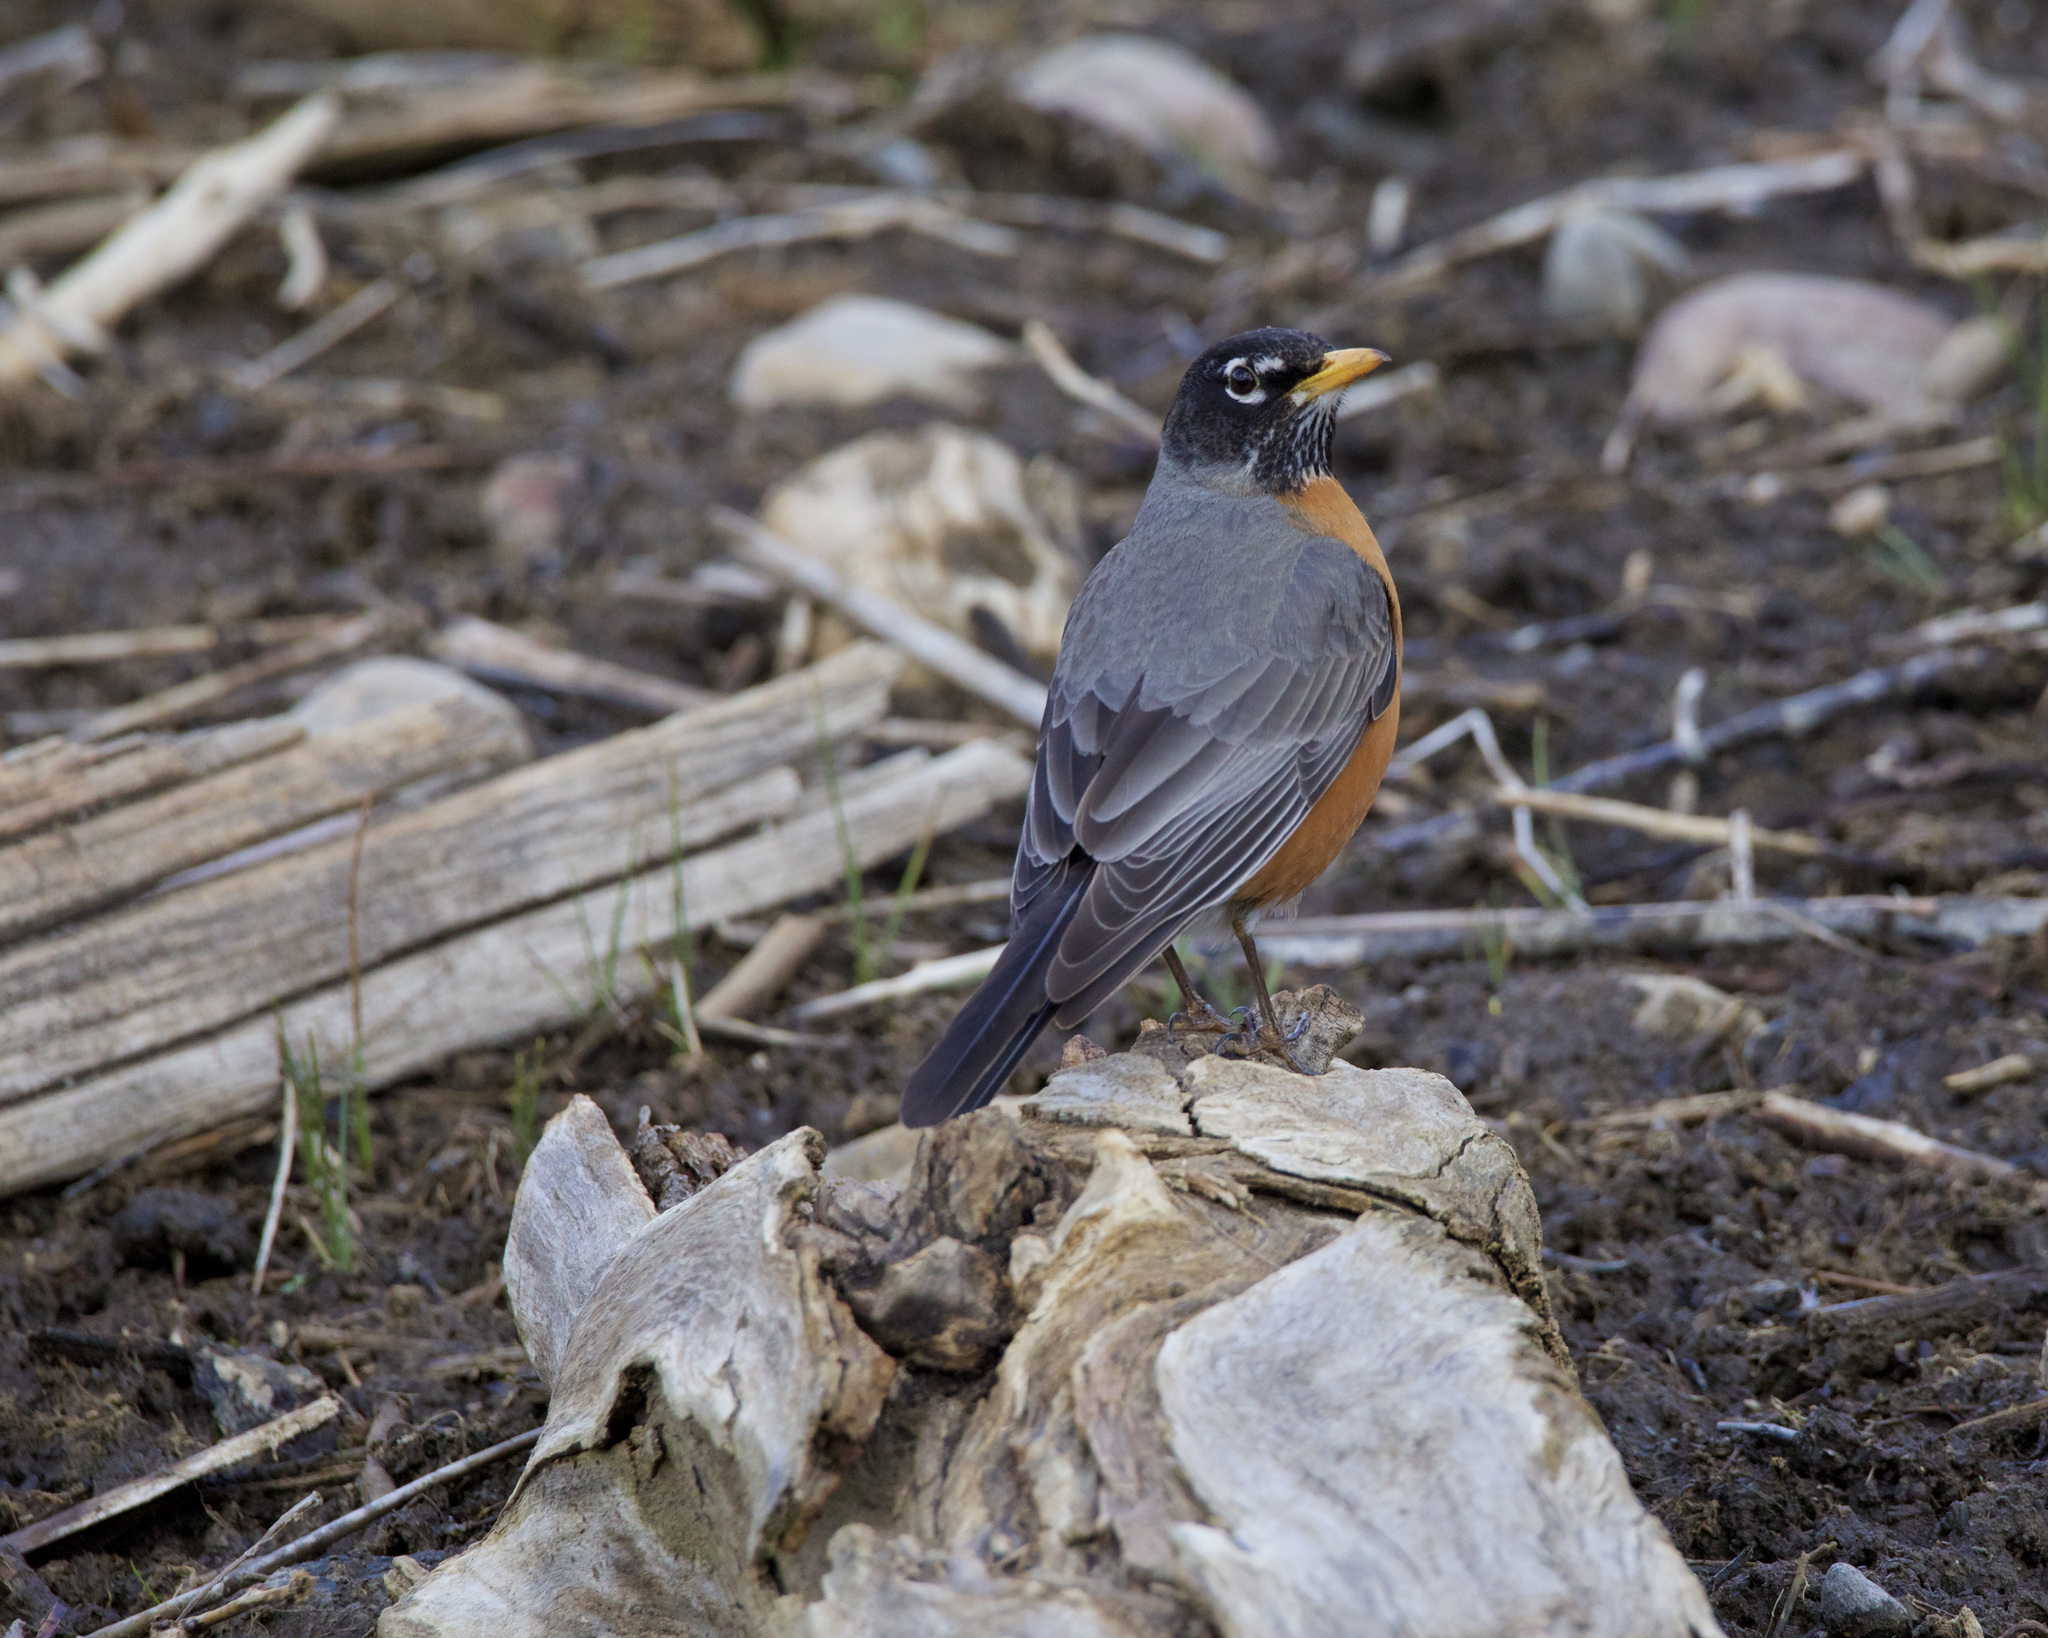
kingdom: Animalia
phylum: Chordata
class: Aves
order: Passeriformes
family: Turdidae
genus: Turdus
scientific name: Turdus migratorius
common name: American robin
